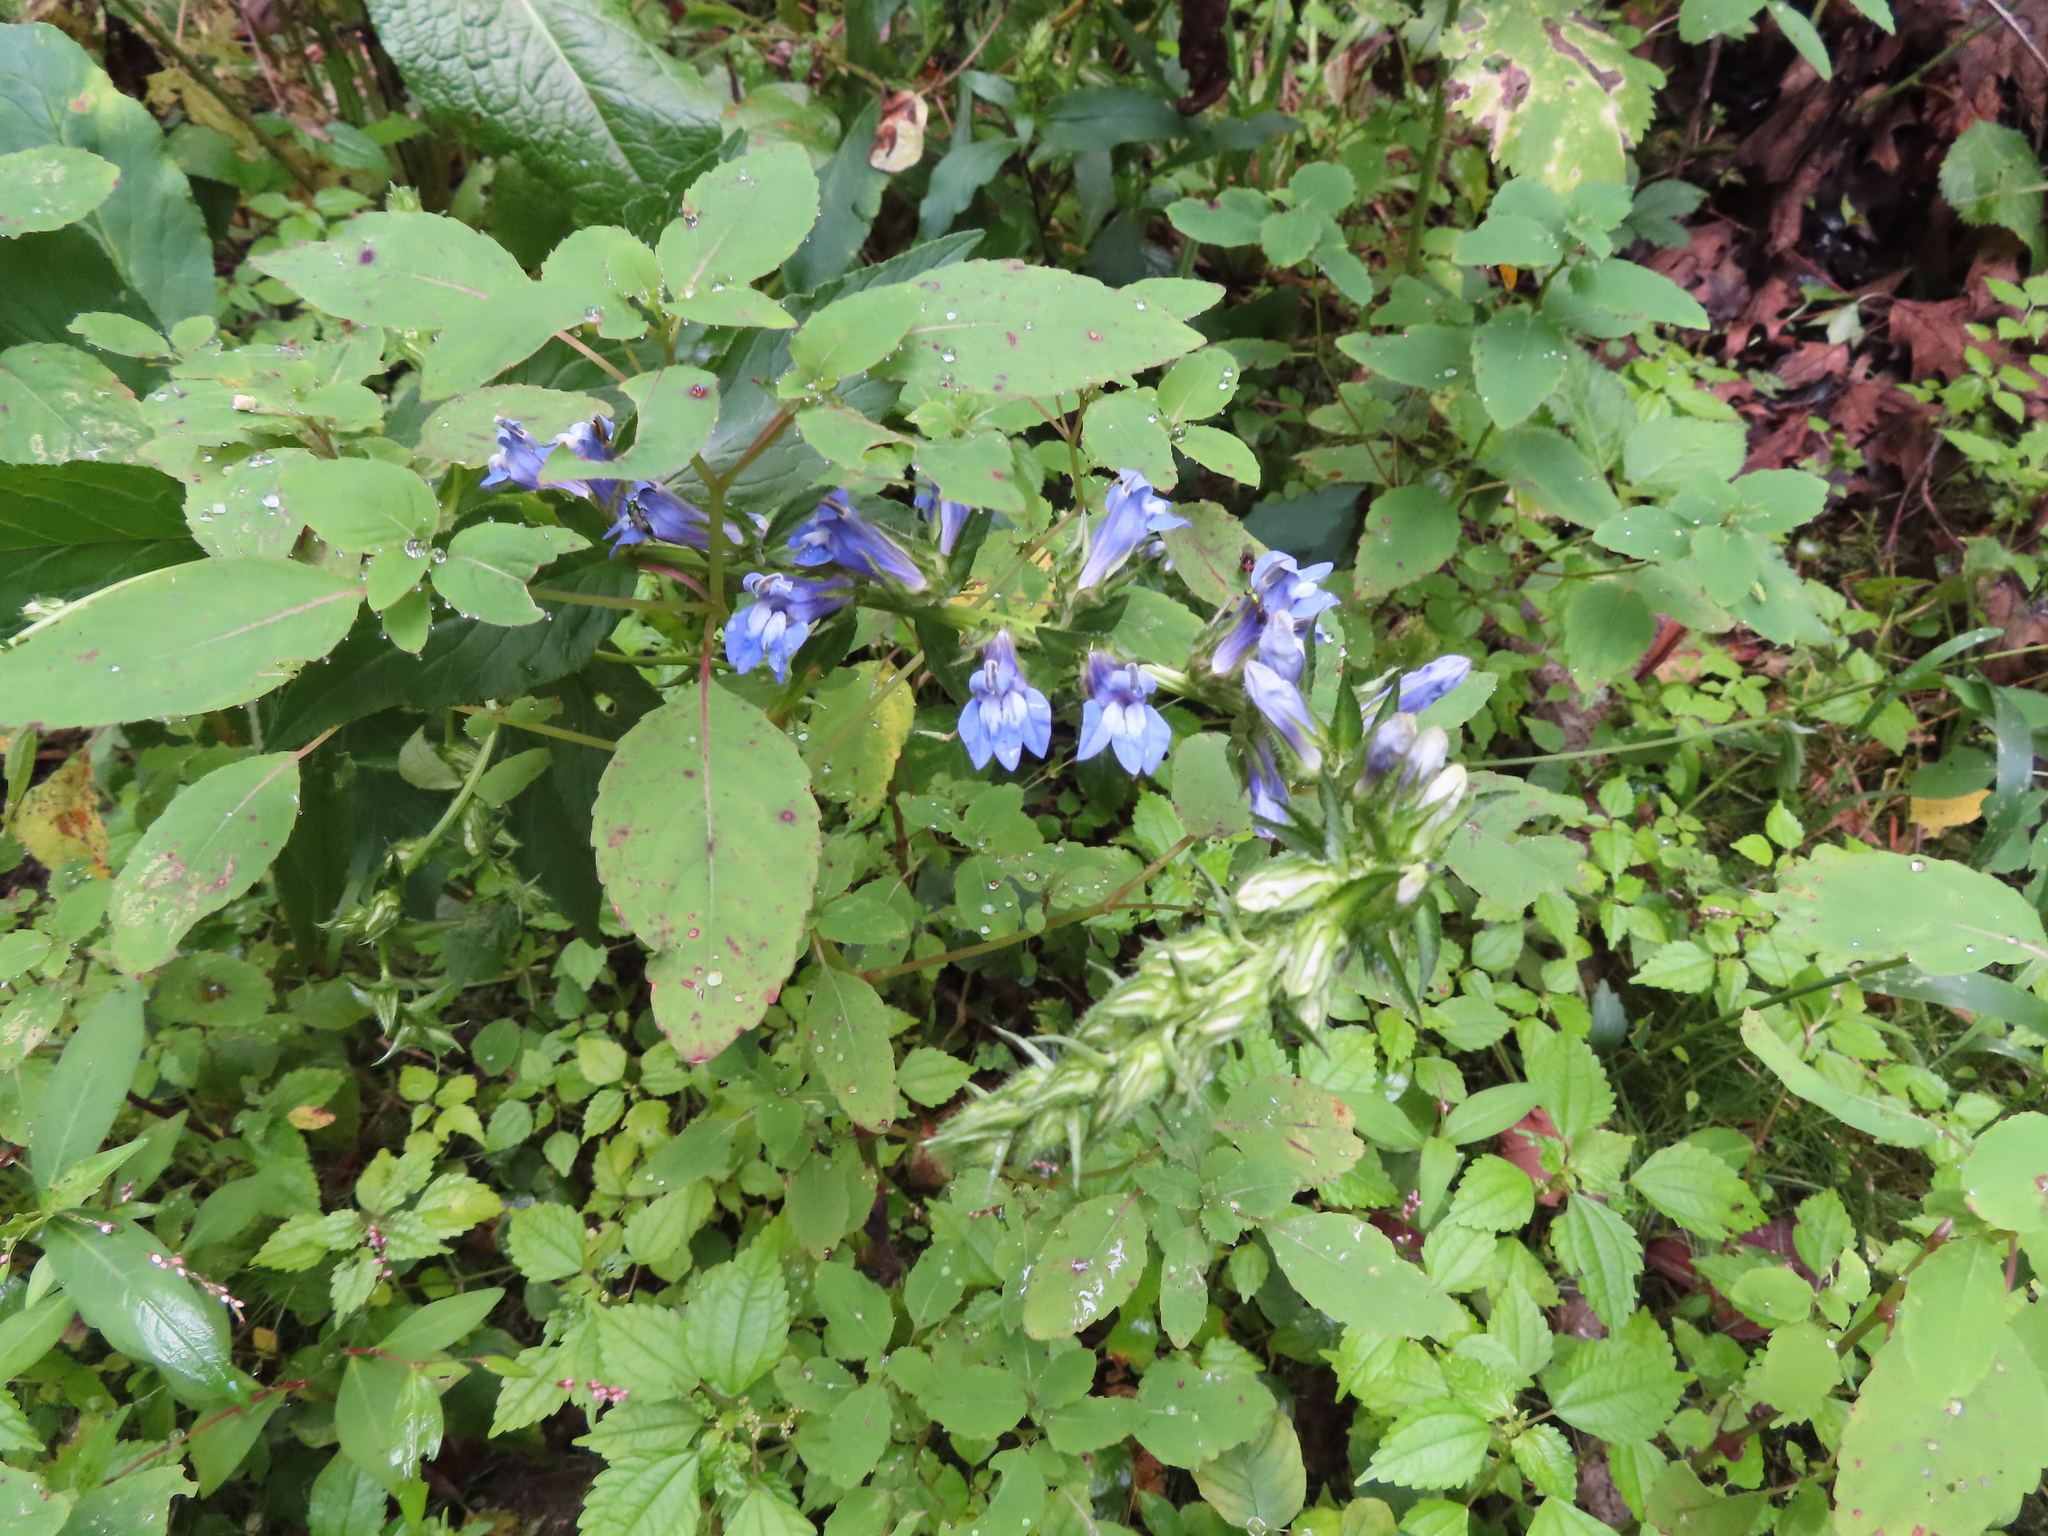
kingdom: Plantae
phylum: Tracheophyta
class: Magnoliopsida
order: Asterales
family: Campanulaceae
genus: Lobelia
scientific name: Lobelia siphilitica
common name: Great lobelia
